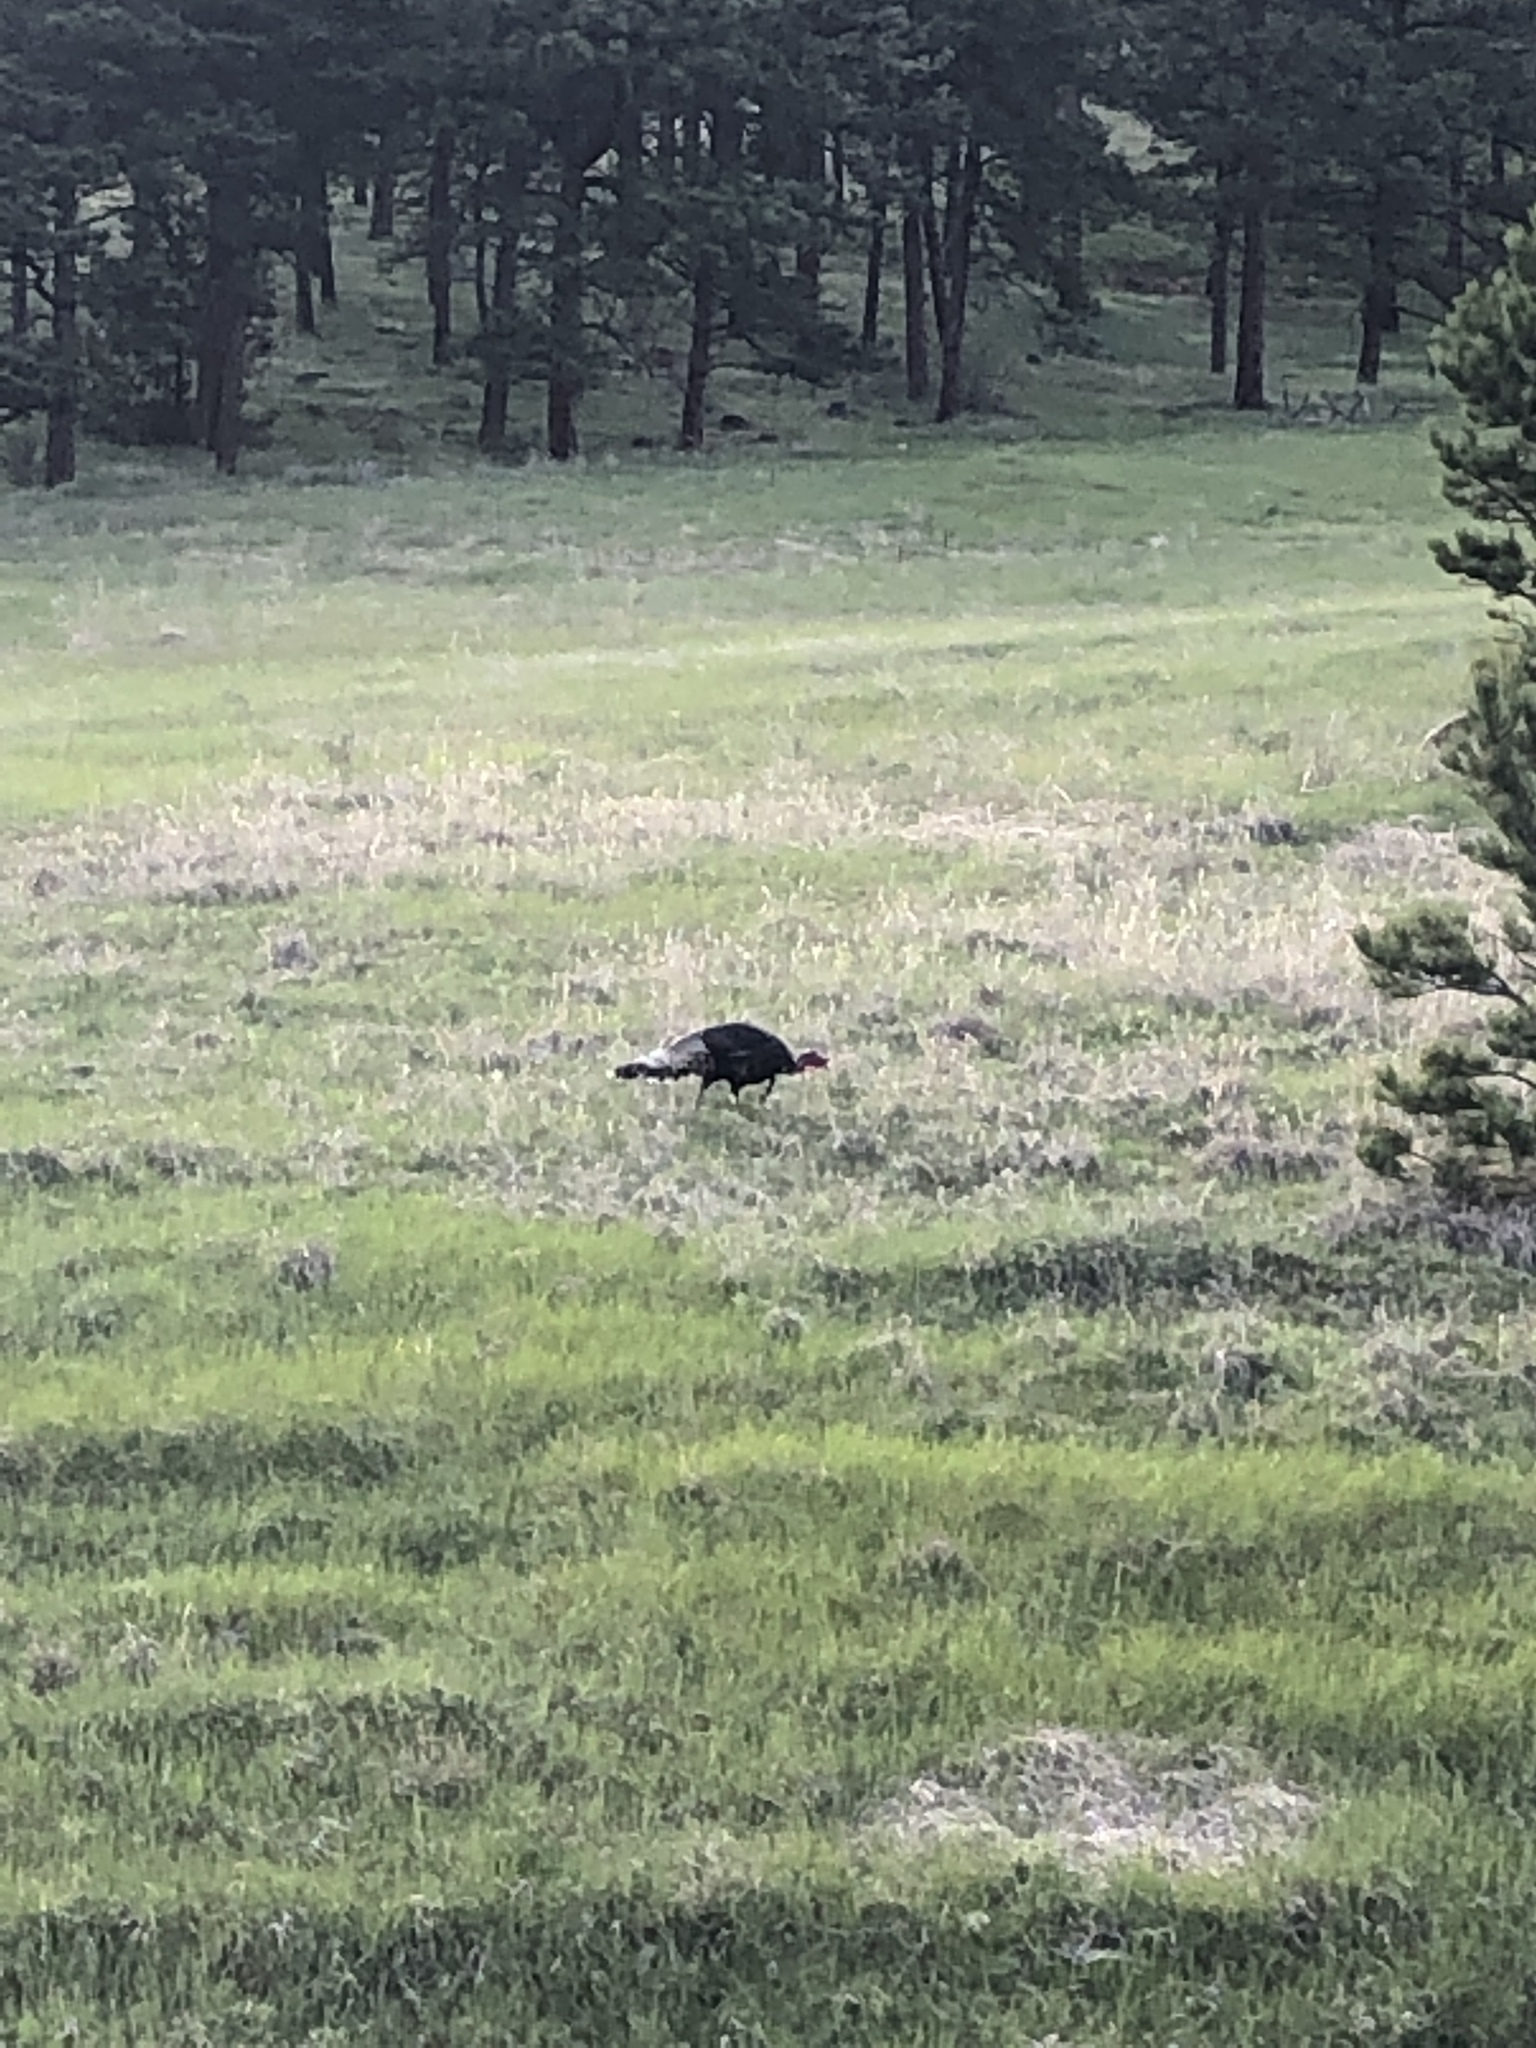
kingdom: Animalia
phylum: Chordata
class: Aves
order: Galliformes
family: Phasianidae
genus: Meleagris
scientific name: Meleagris gallopavo
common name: Wild turkey
